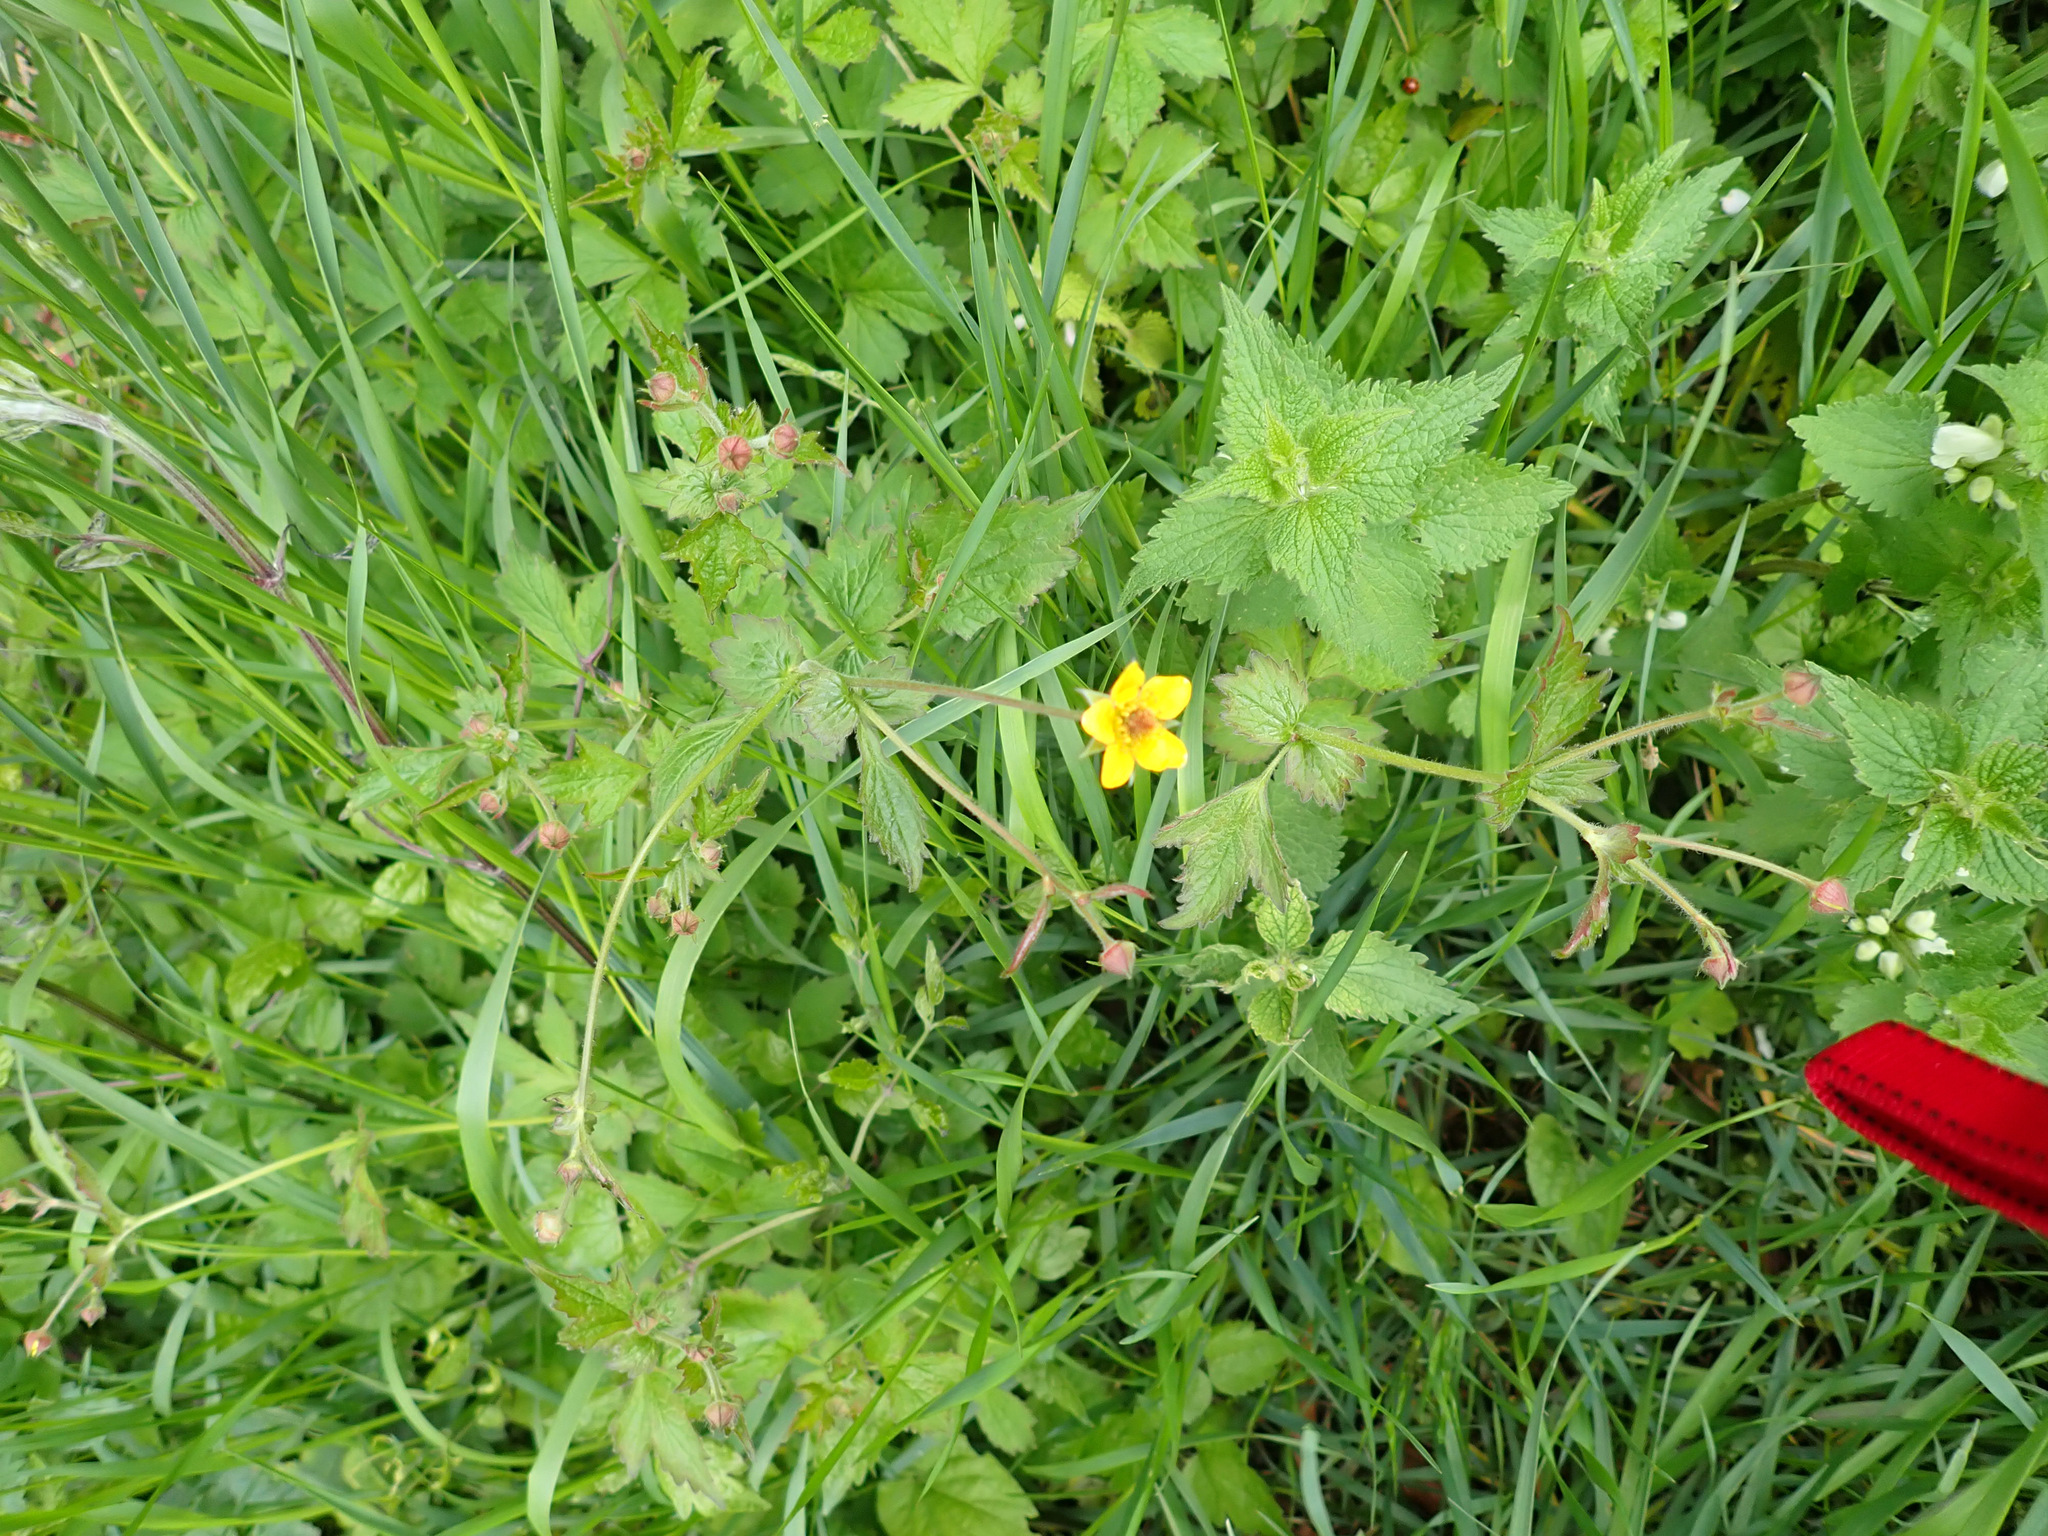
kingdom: Plantae
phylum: Tracheophyta
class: Magnoliopsida
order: Rosales
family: Rosaceae
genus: Geum
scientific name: Geum urbanum
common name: Wood avens
